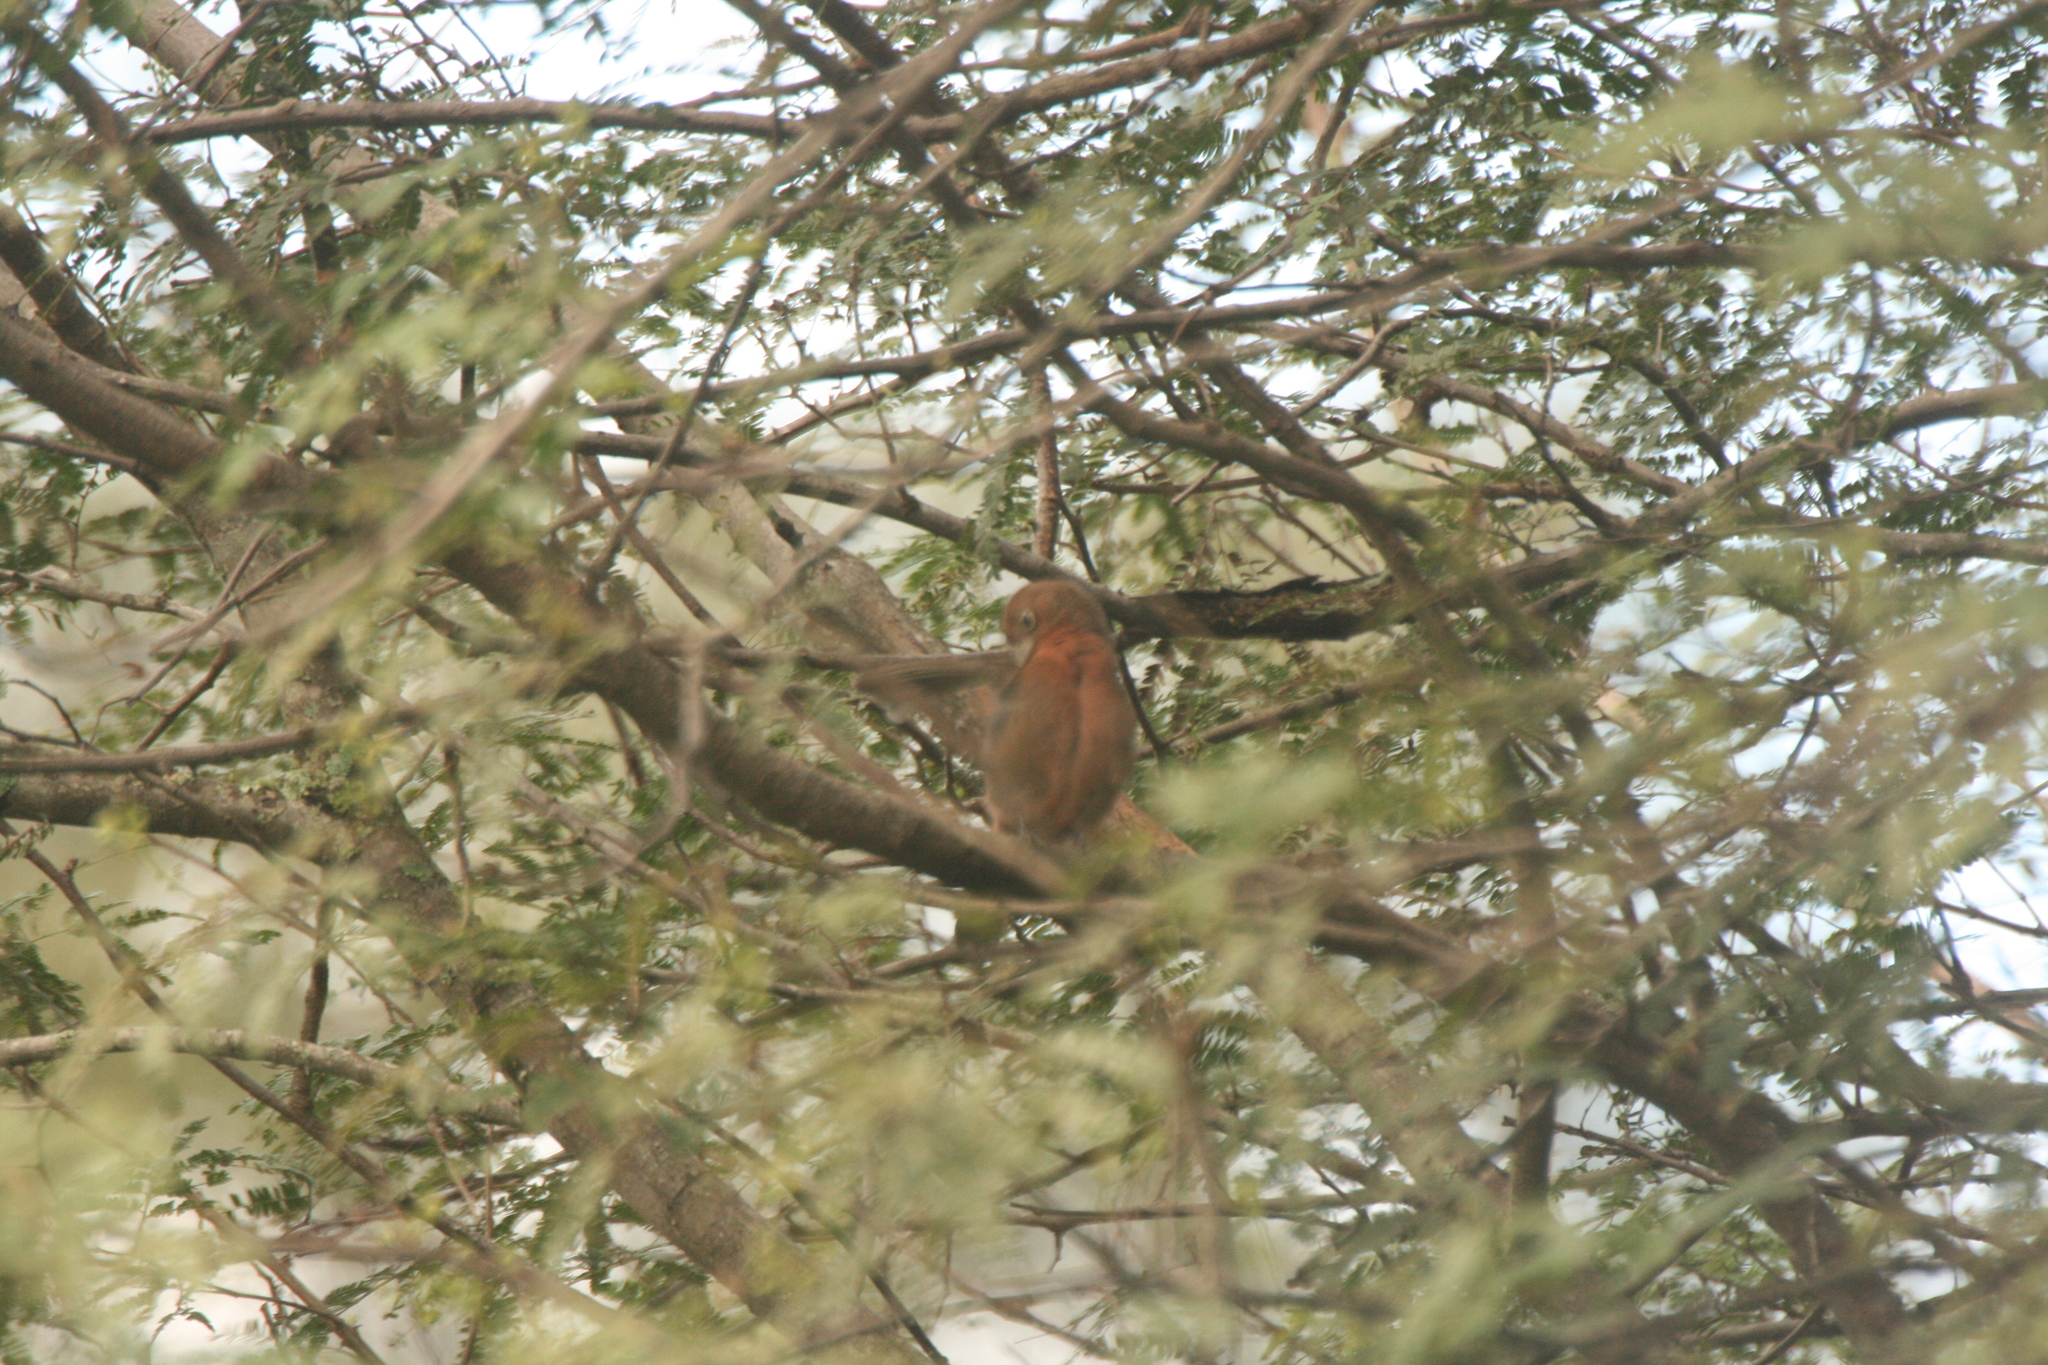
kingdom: Animalia
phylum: Chordata
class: Aves
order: Passeriformes
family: Thraupidae
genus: Coryphospingus
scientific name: Coryphospingus cucullatus
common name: Red pileated finch
